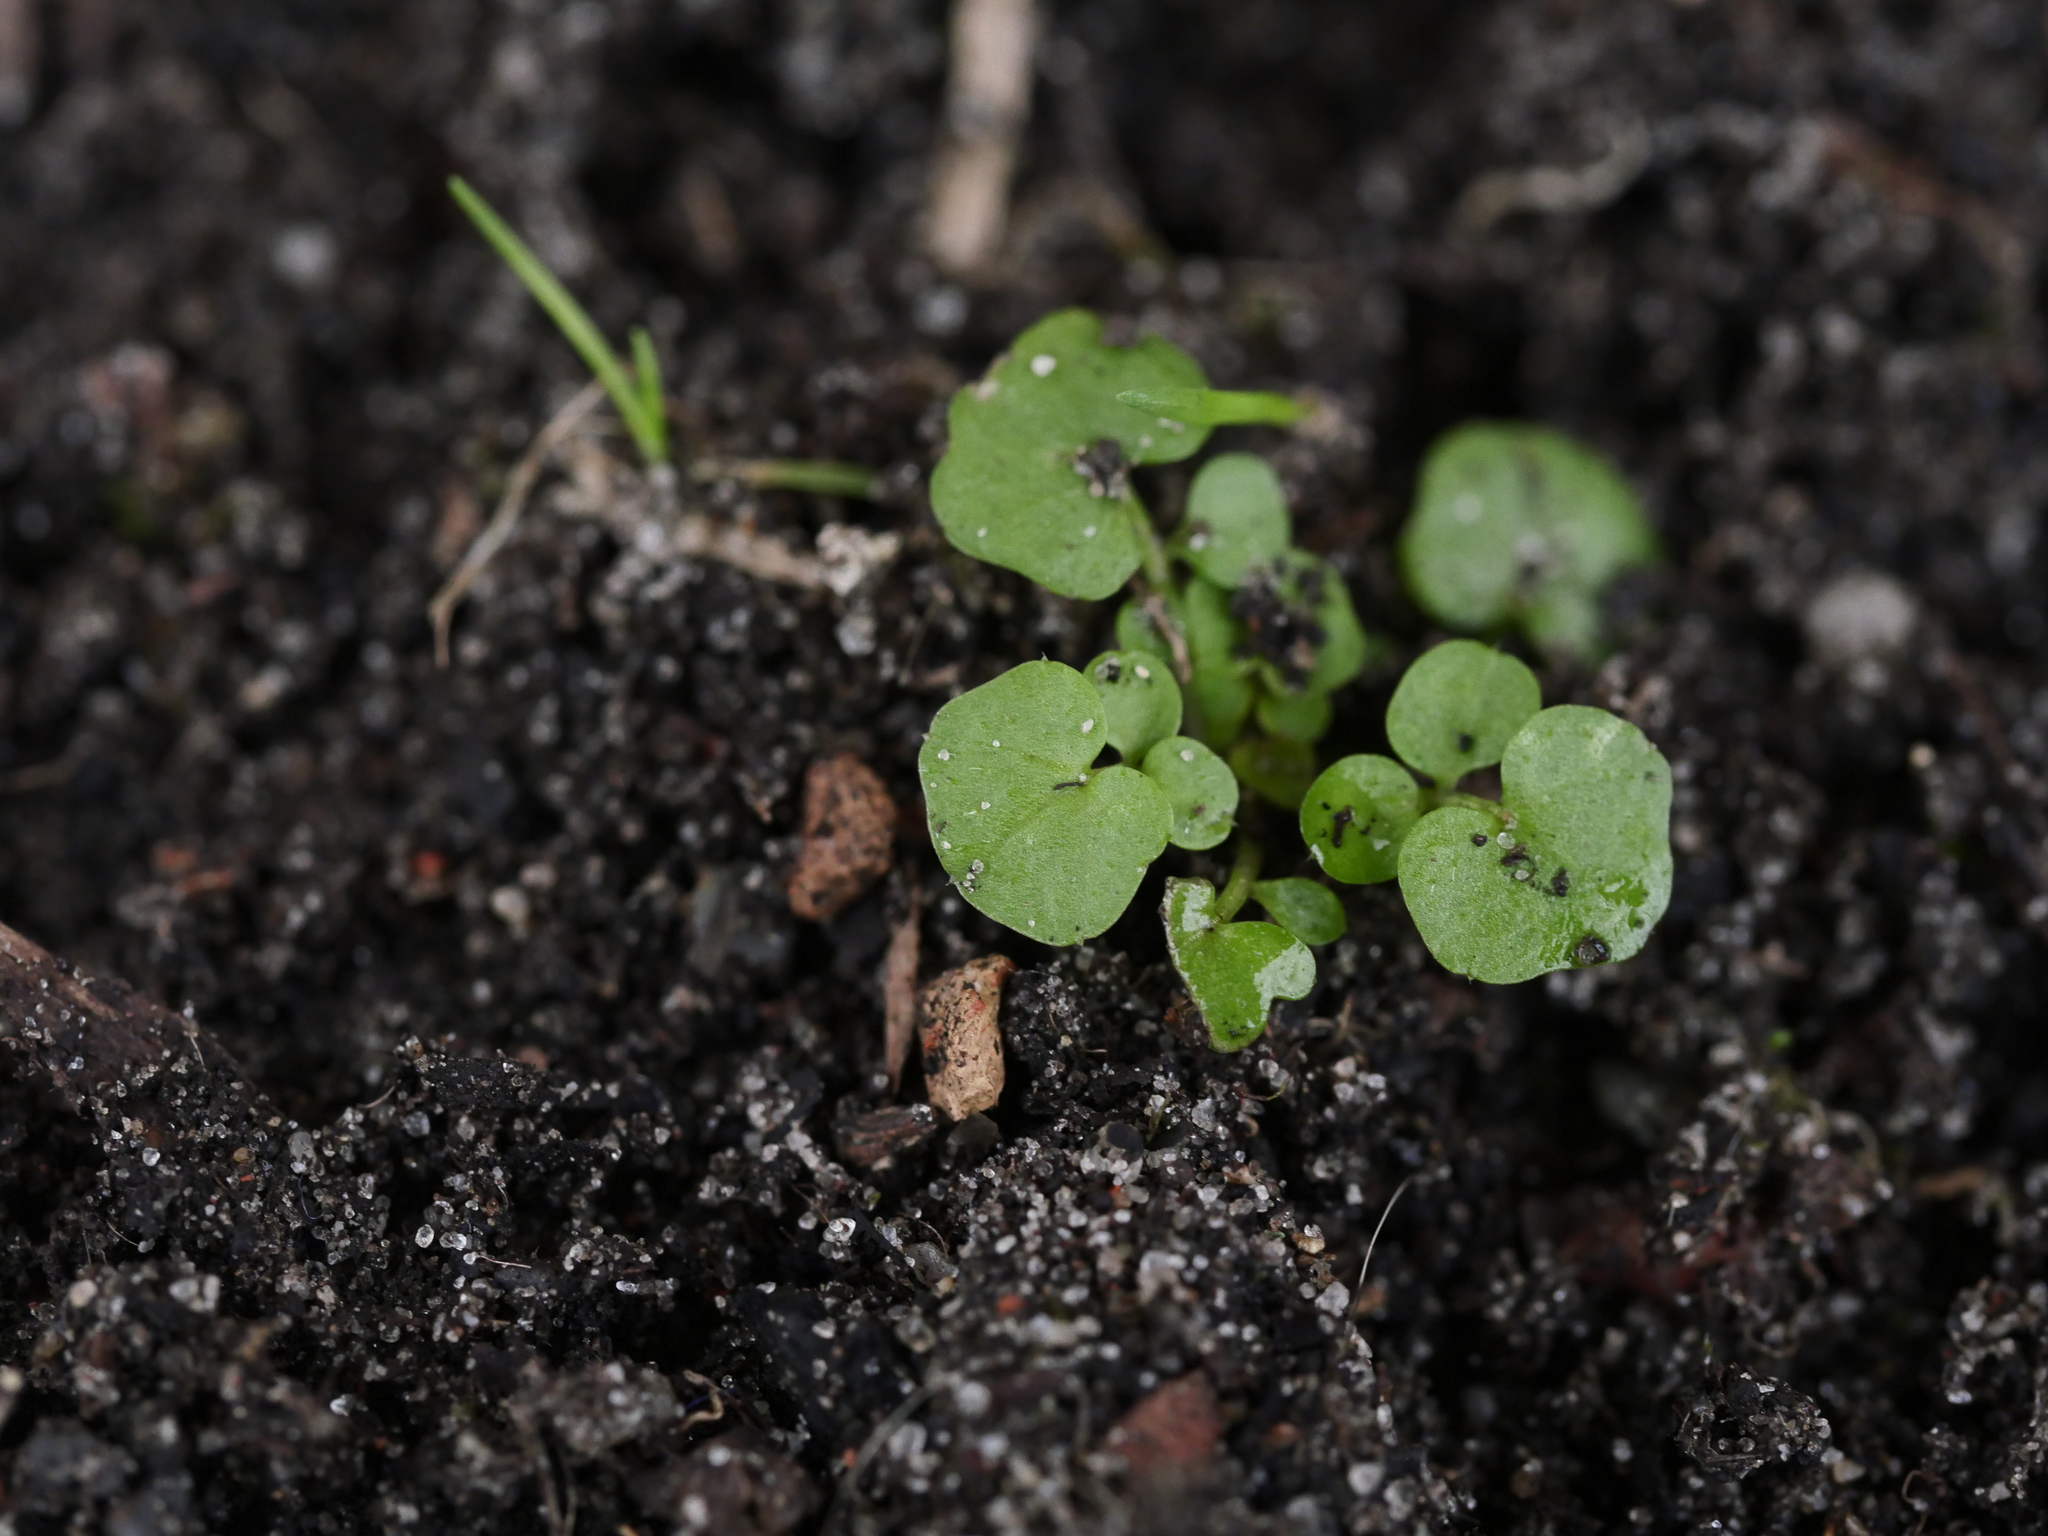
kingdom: Plantae
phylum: Tracheophyta
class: Magnoliopsida
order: Brassicales
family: Brassicaceae
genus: Cardamine
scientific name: Cardamine hirsuta
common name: Hairy bittercress
